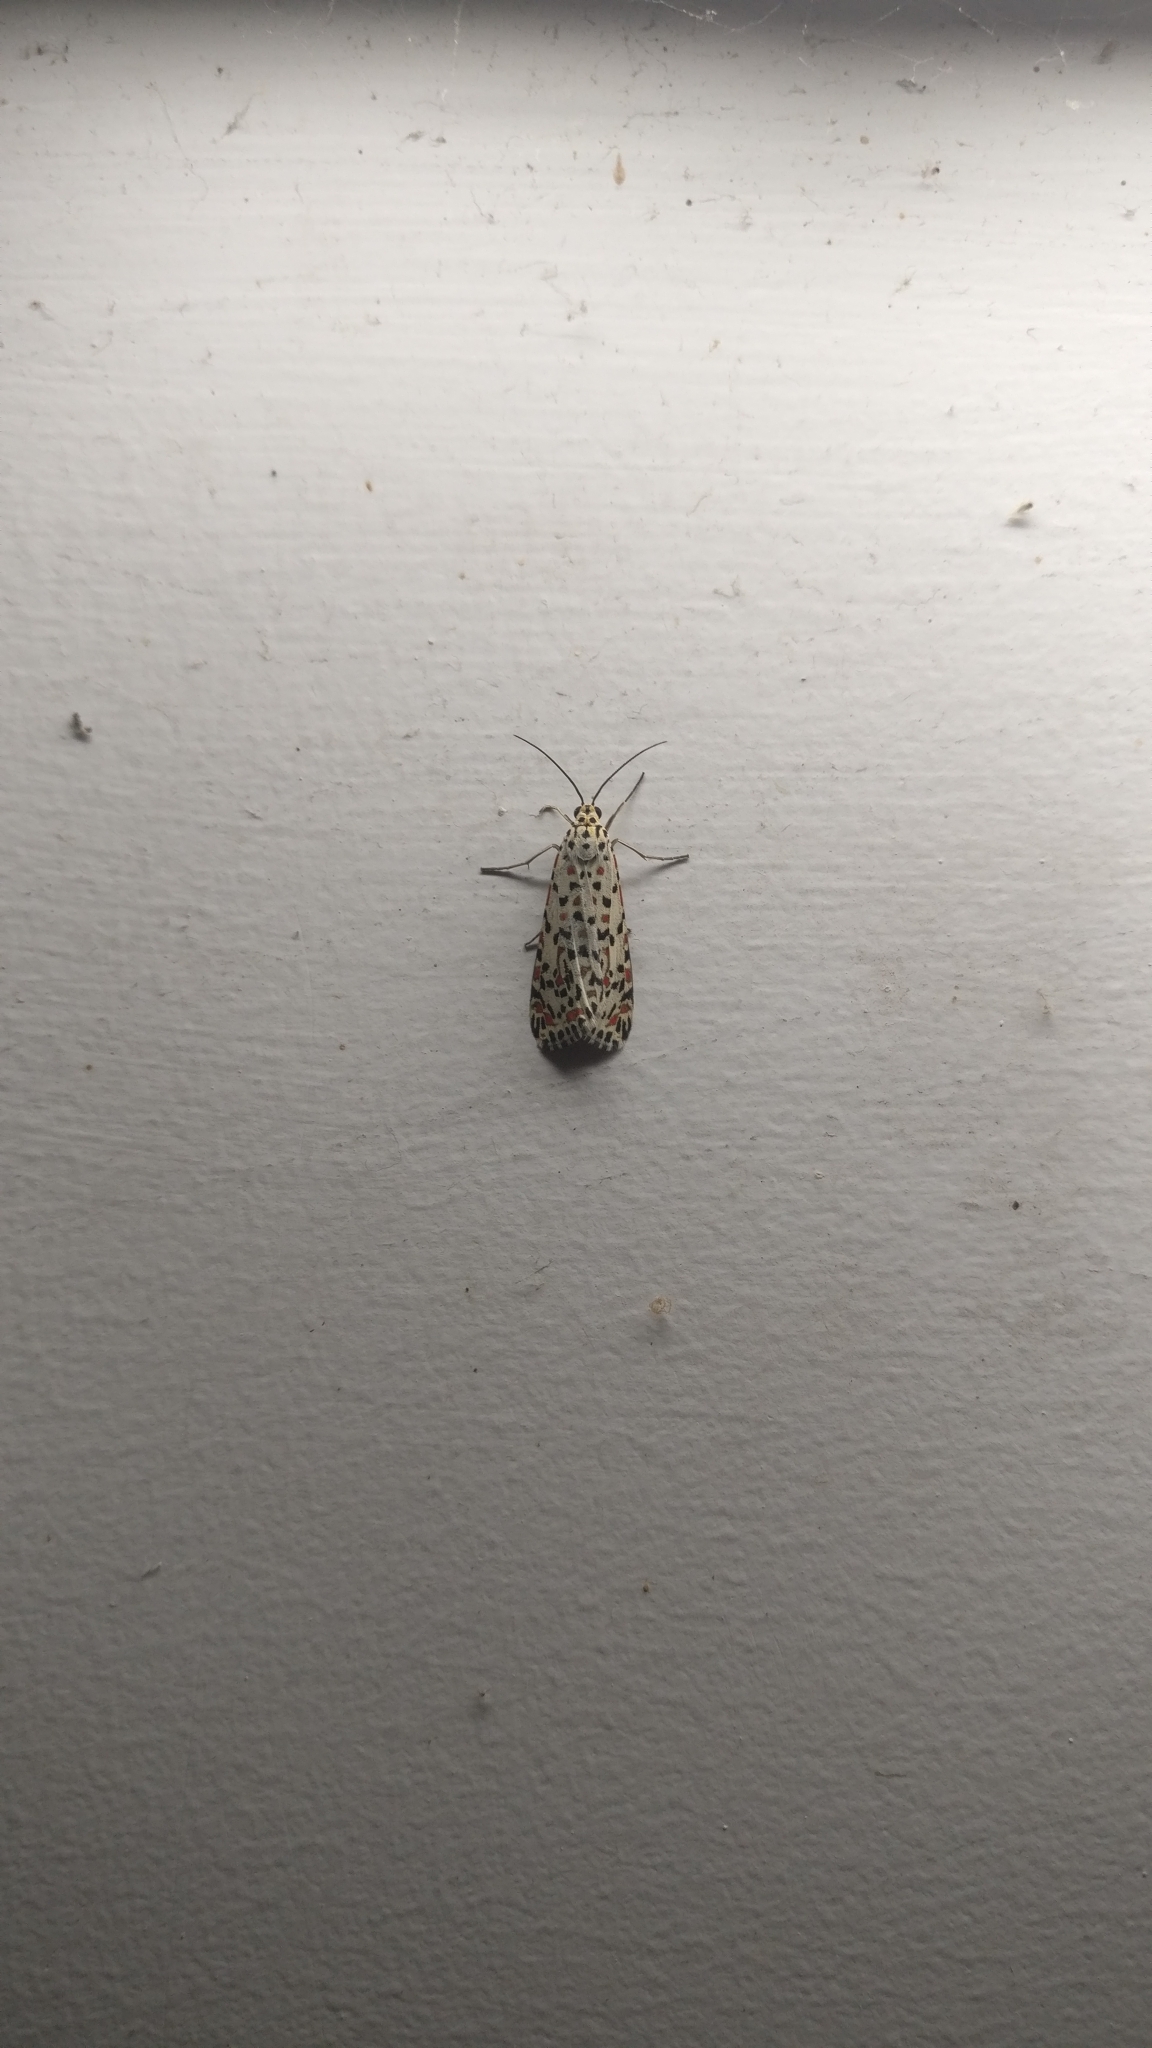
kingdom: Animalia
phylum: Arthropoda
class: Insecta
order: Lepidoptera
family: Erebidae
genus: Utetheisa
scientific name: Utetheisa pulchelloides
